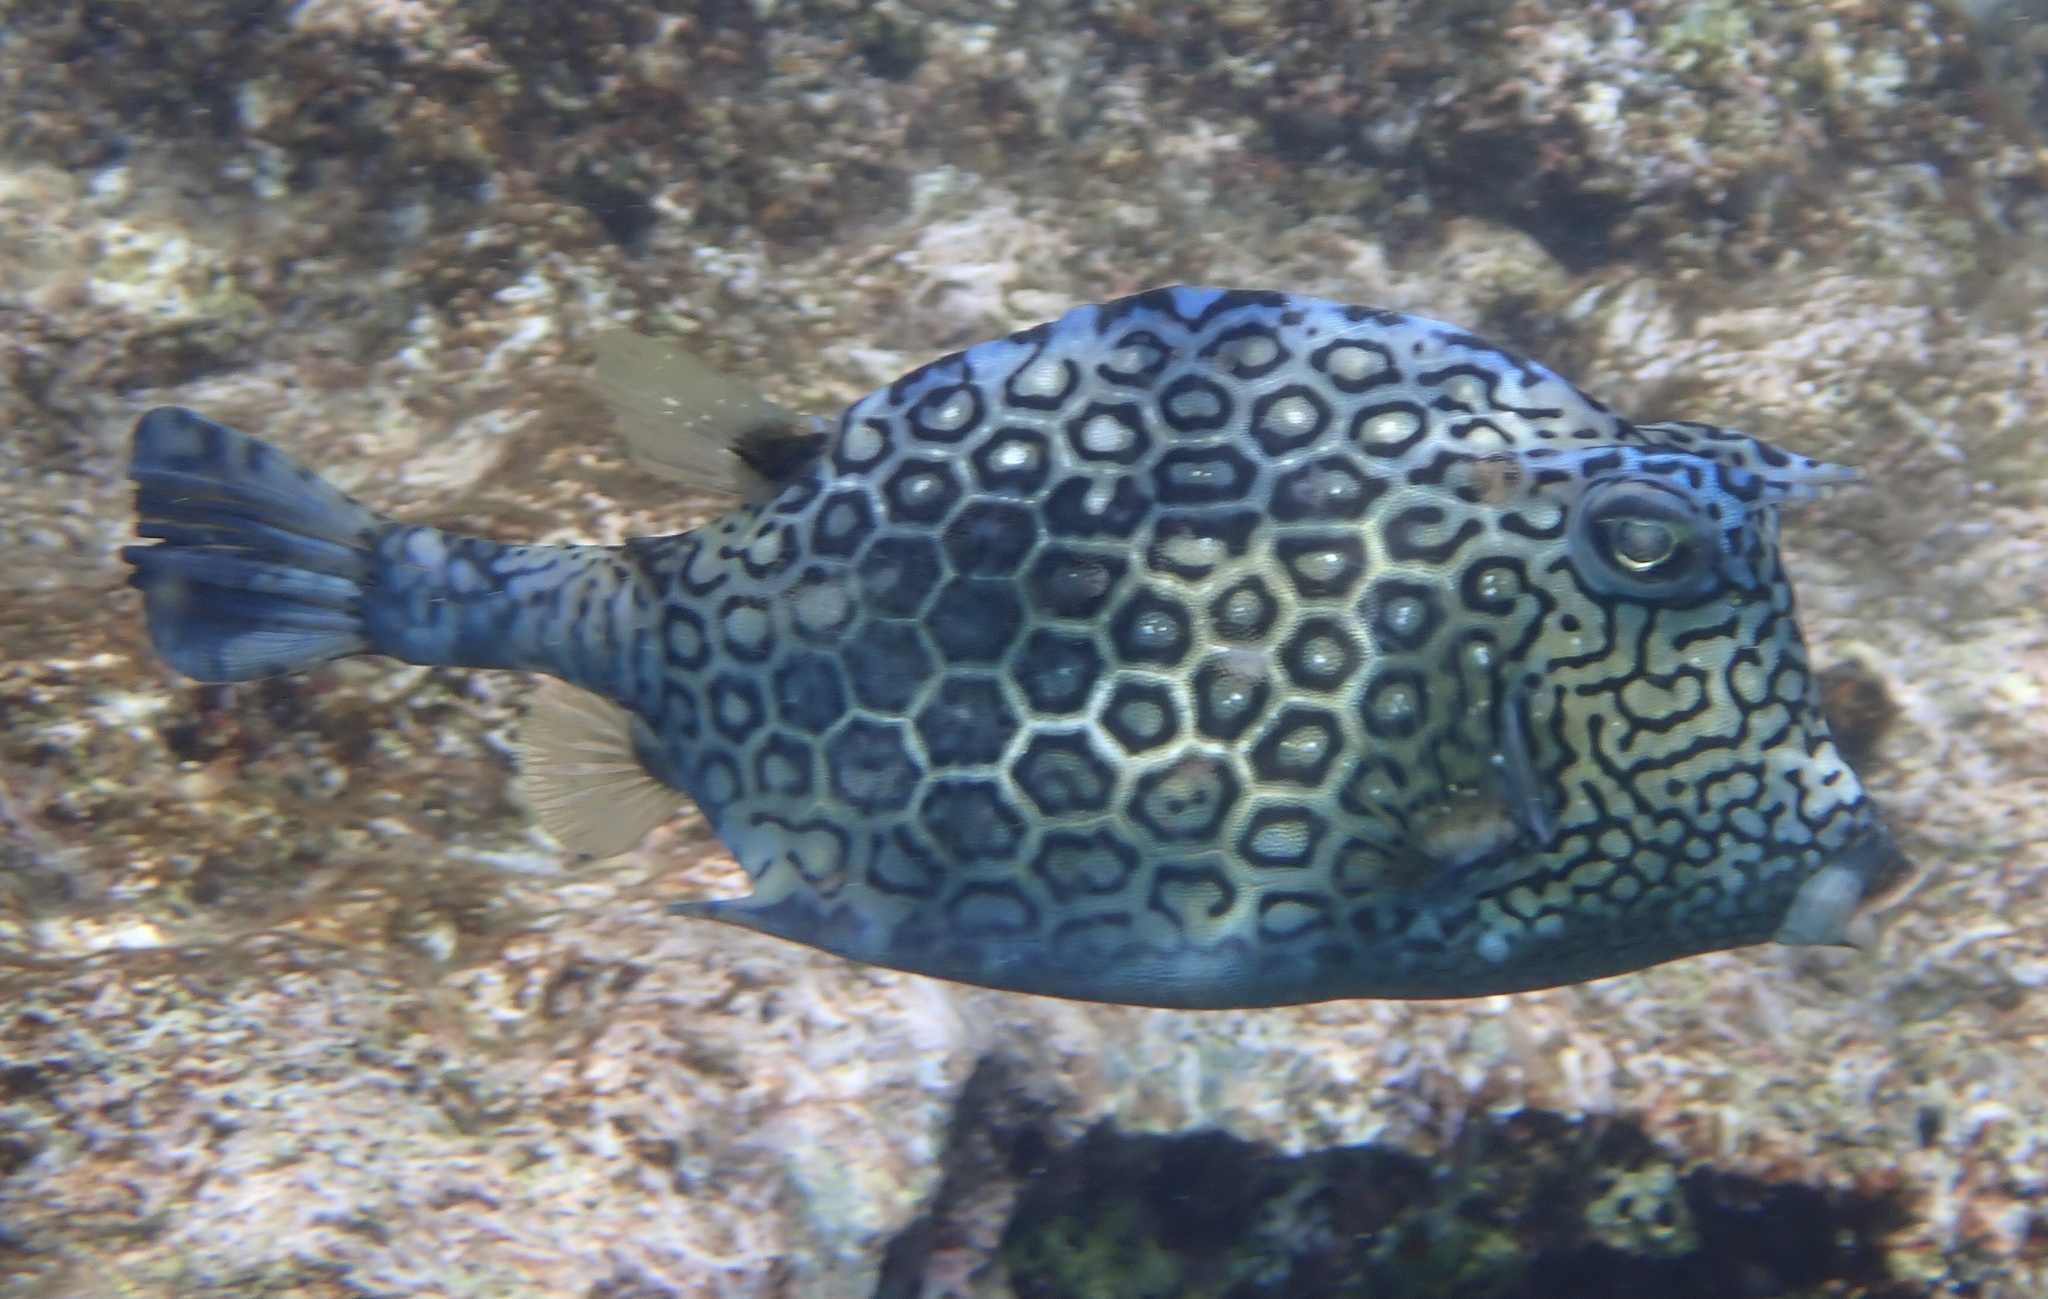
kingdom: Animalia
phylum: Chordata
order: Tetraodontiformes
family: Ostraciidae
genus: Acanthostracion
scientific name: Acanthostracion polygonius
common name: Honeycomb cowfish
